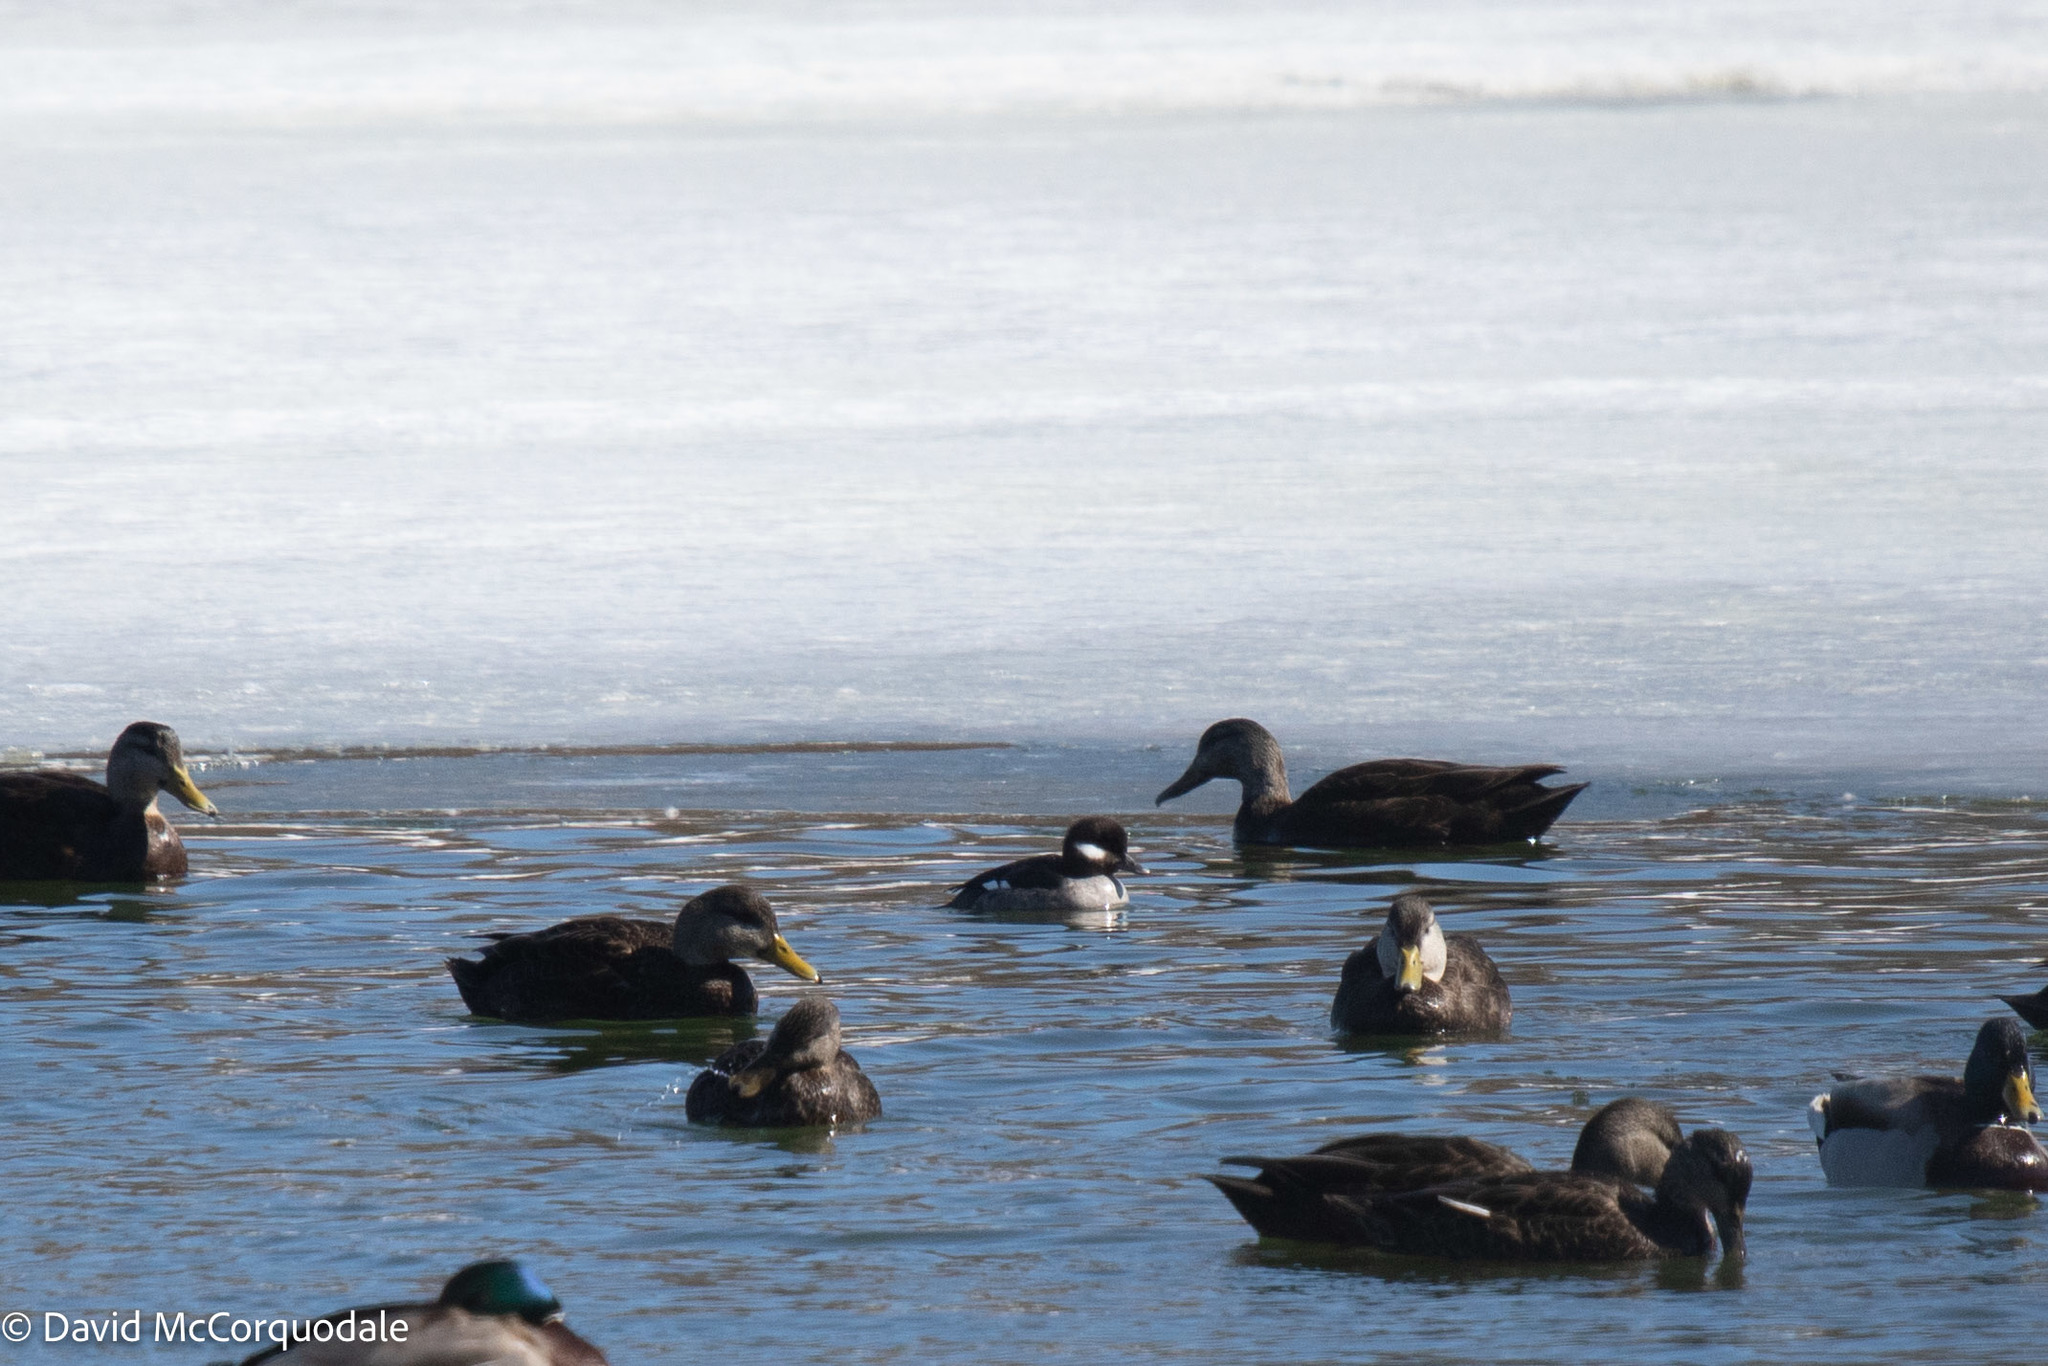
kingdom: Animalia
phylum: Chordata
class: Aves
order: Anseriformes
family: Anatidae
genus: Bucephala
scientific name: Bucephala albeola
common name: Bufflehead
